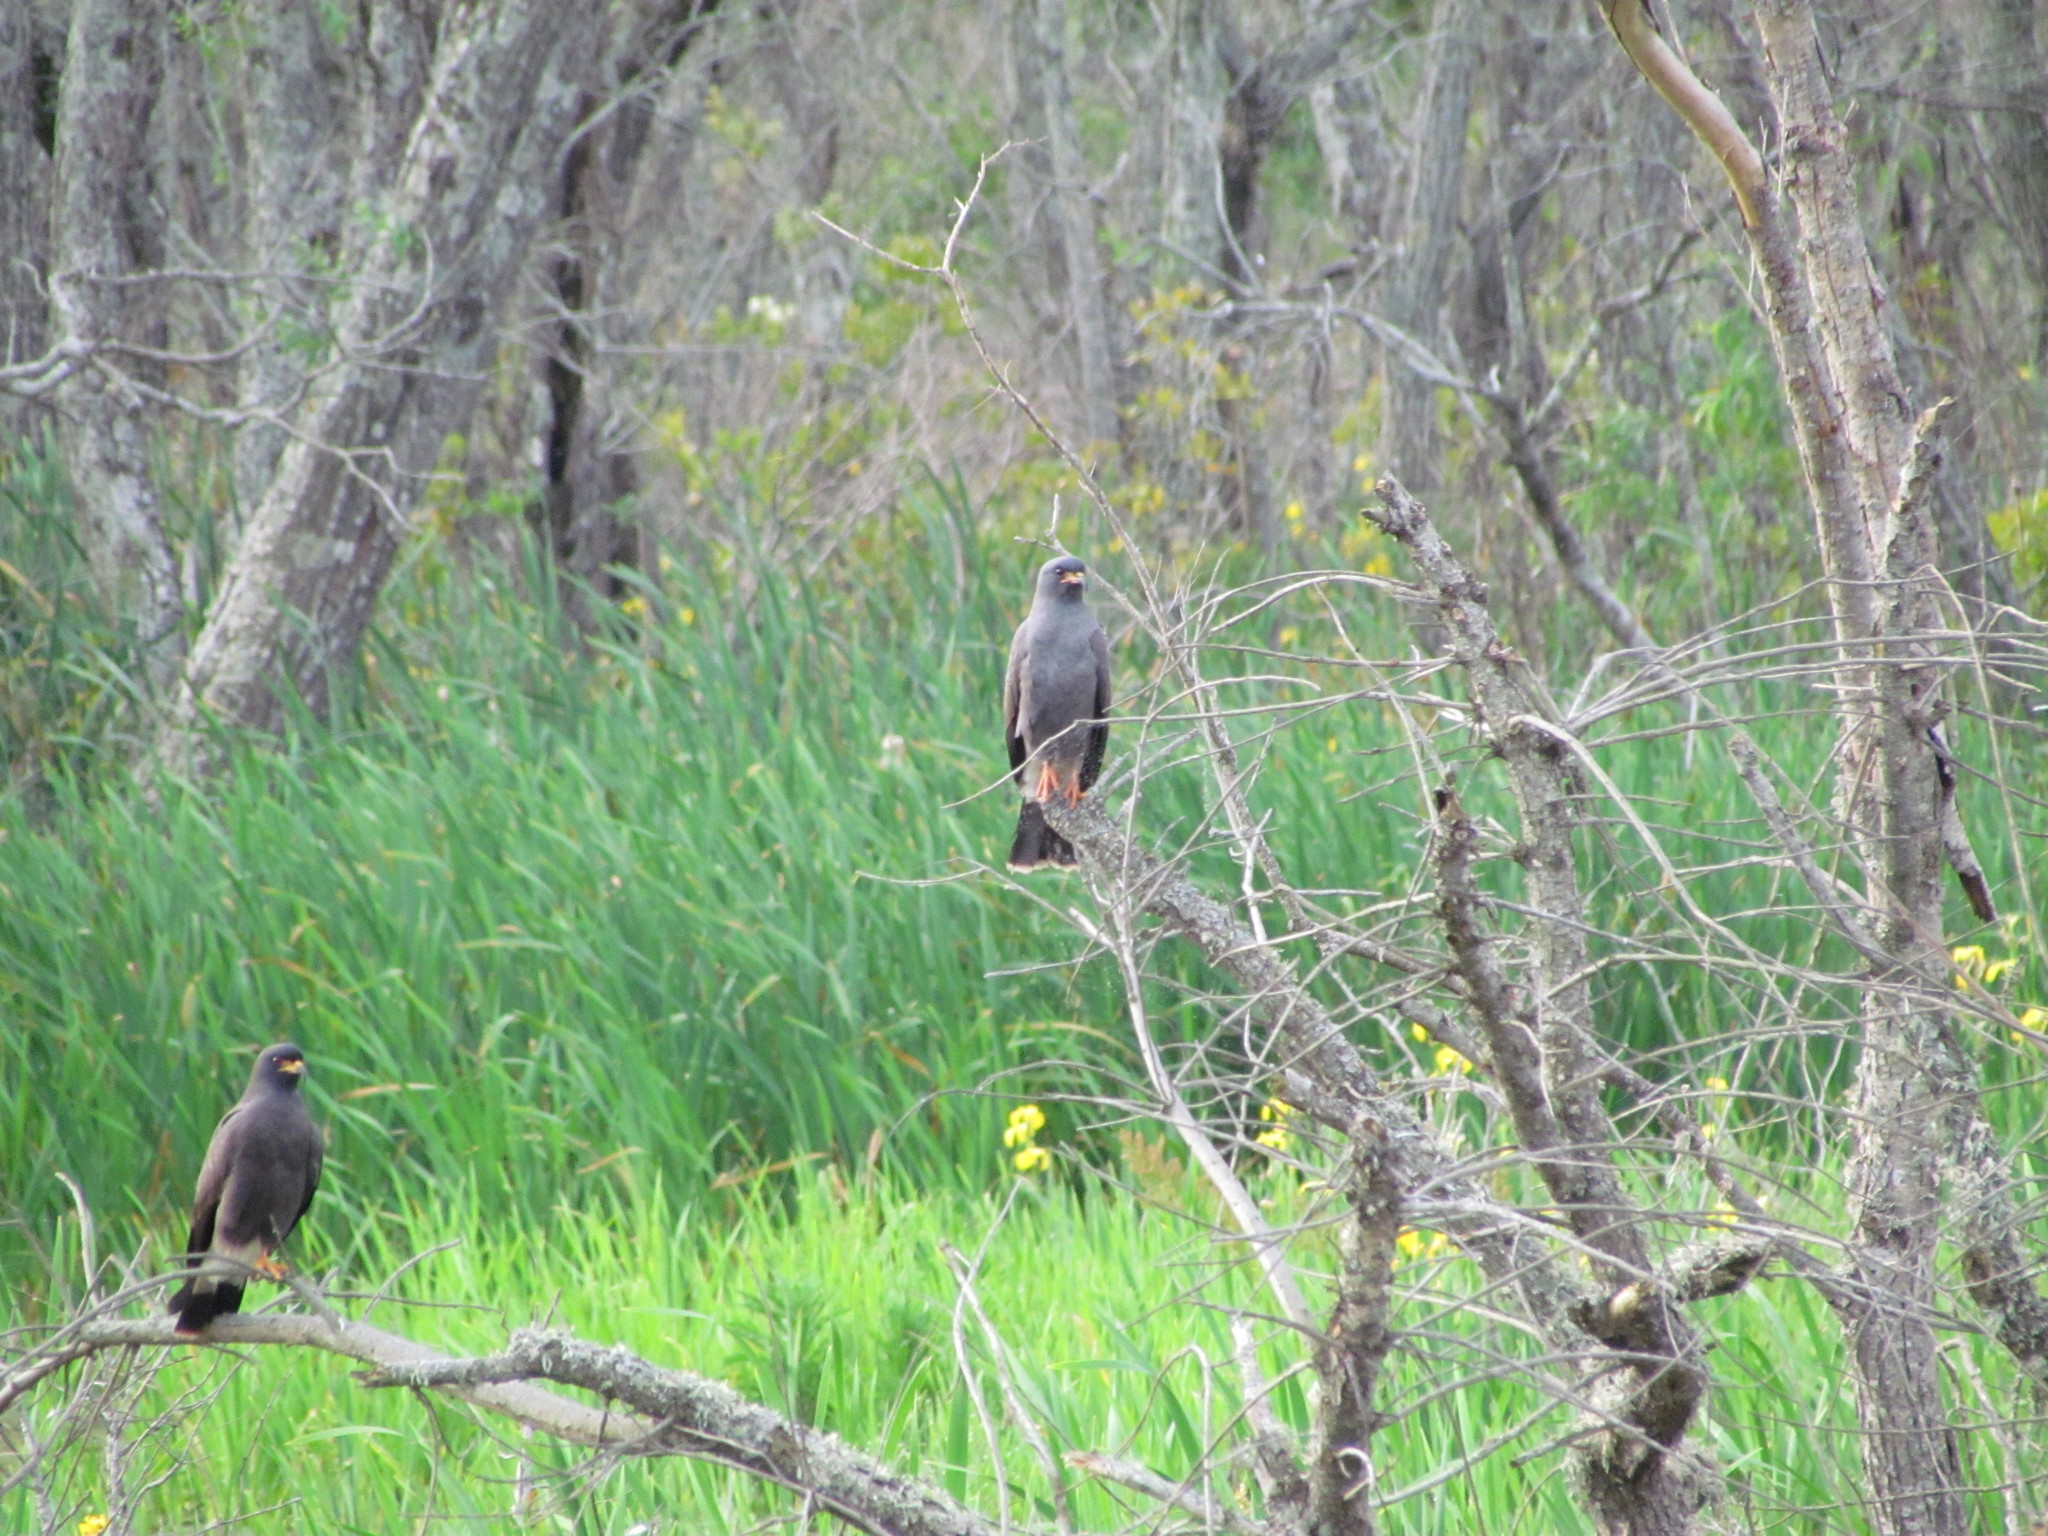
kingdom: Animalia
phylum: Chordata
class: Aves
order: Accipitriformes
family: Accipitridae
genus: Rostrhamus
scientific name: Rostrhamus sociabilis
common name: Snail kite
